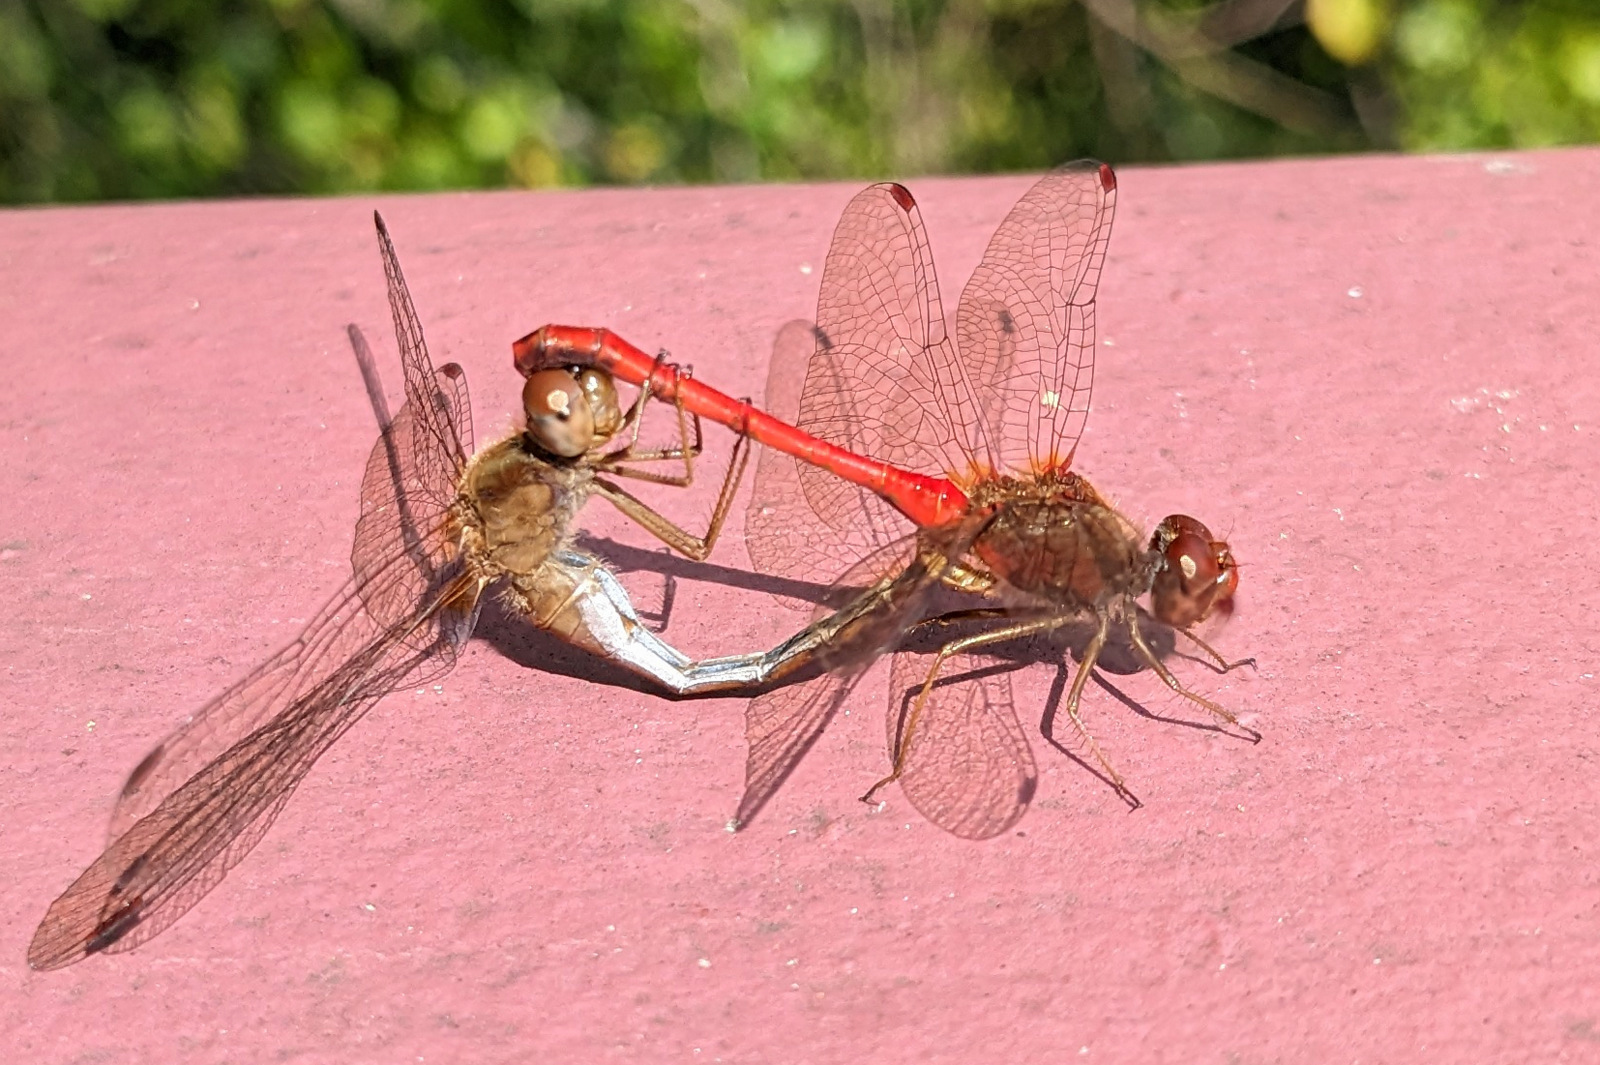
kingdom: Animalia
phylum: Arthropoda
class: Insecta
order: Odonata
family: Libellulidae
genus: Sympetrum
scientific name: Sympetrum vicinum
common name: Autumn meadowhawk
